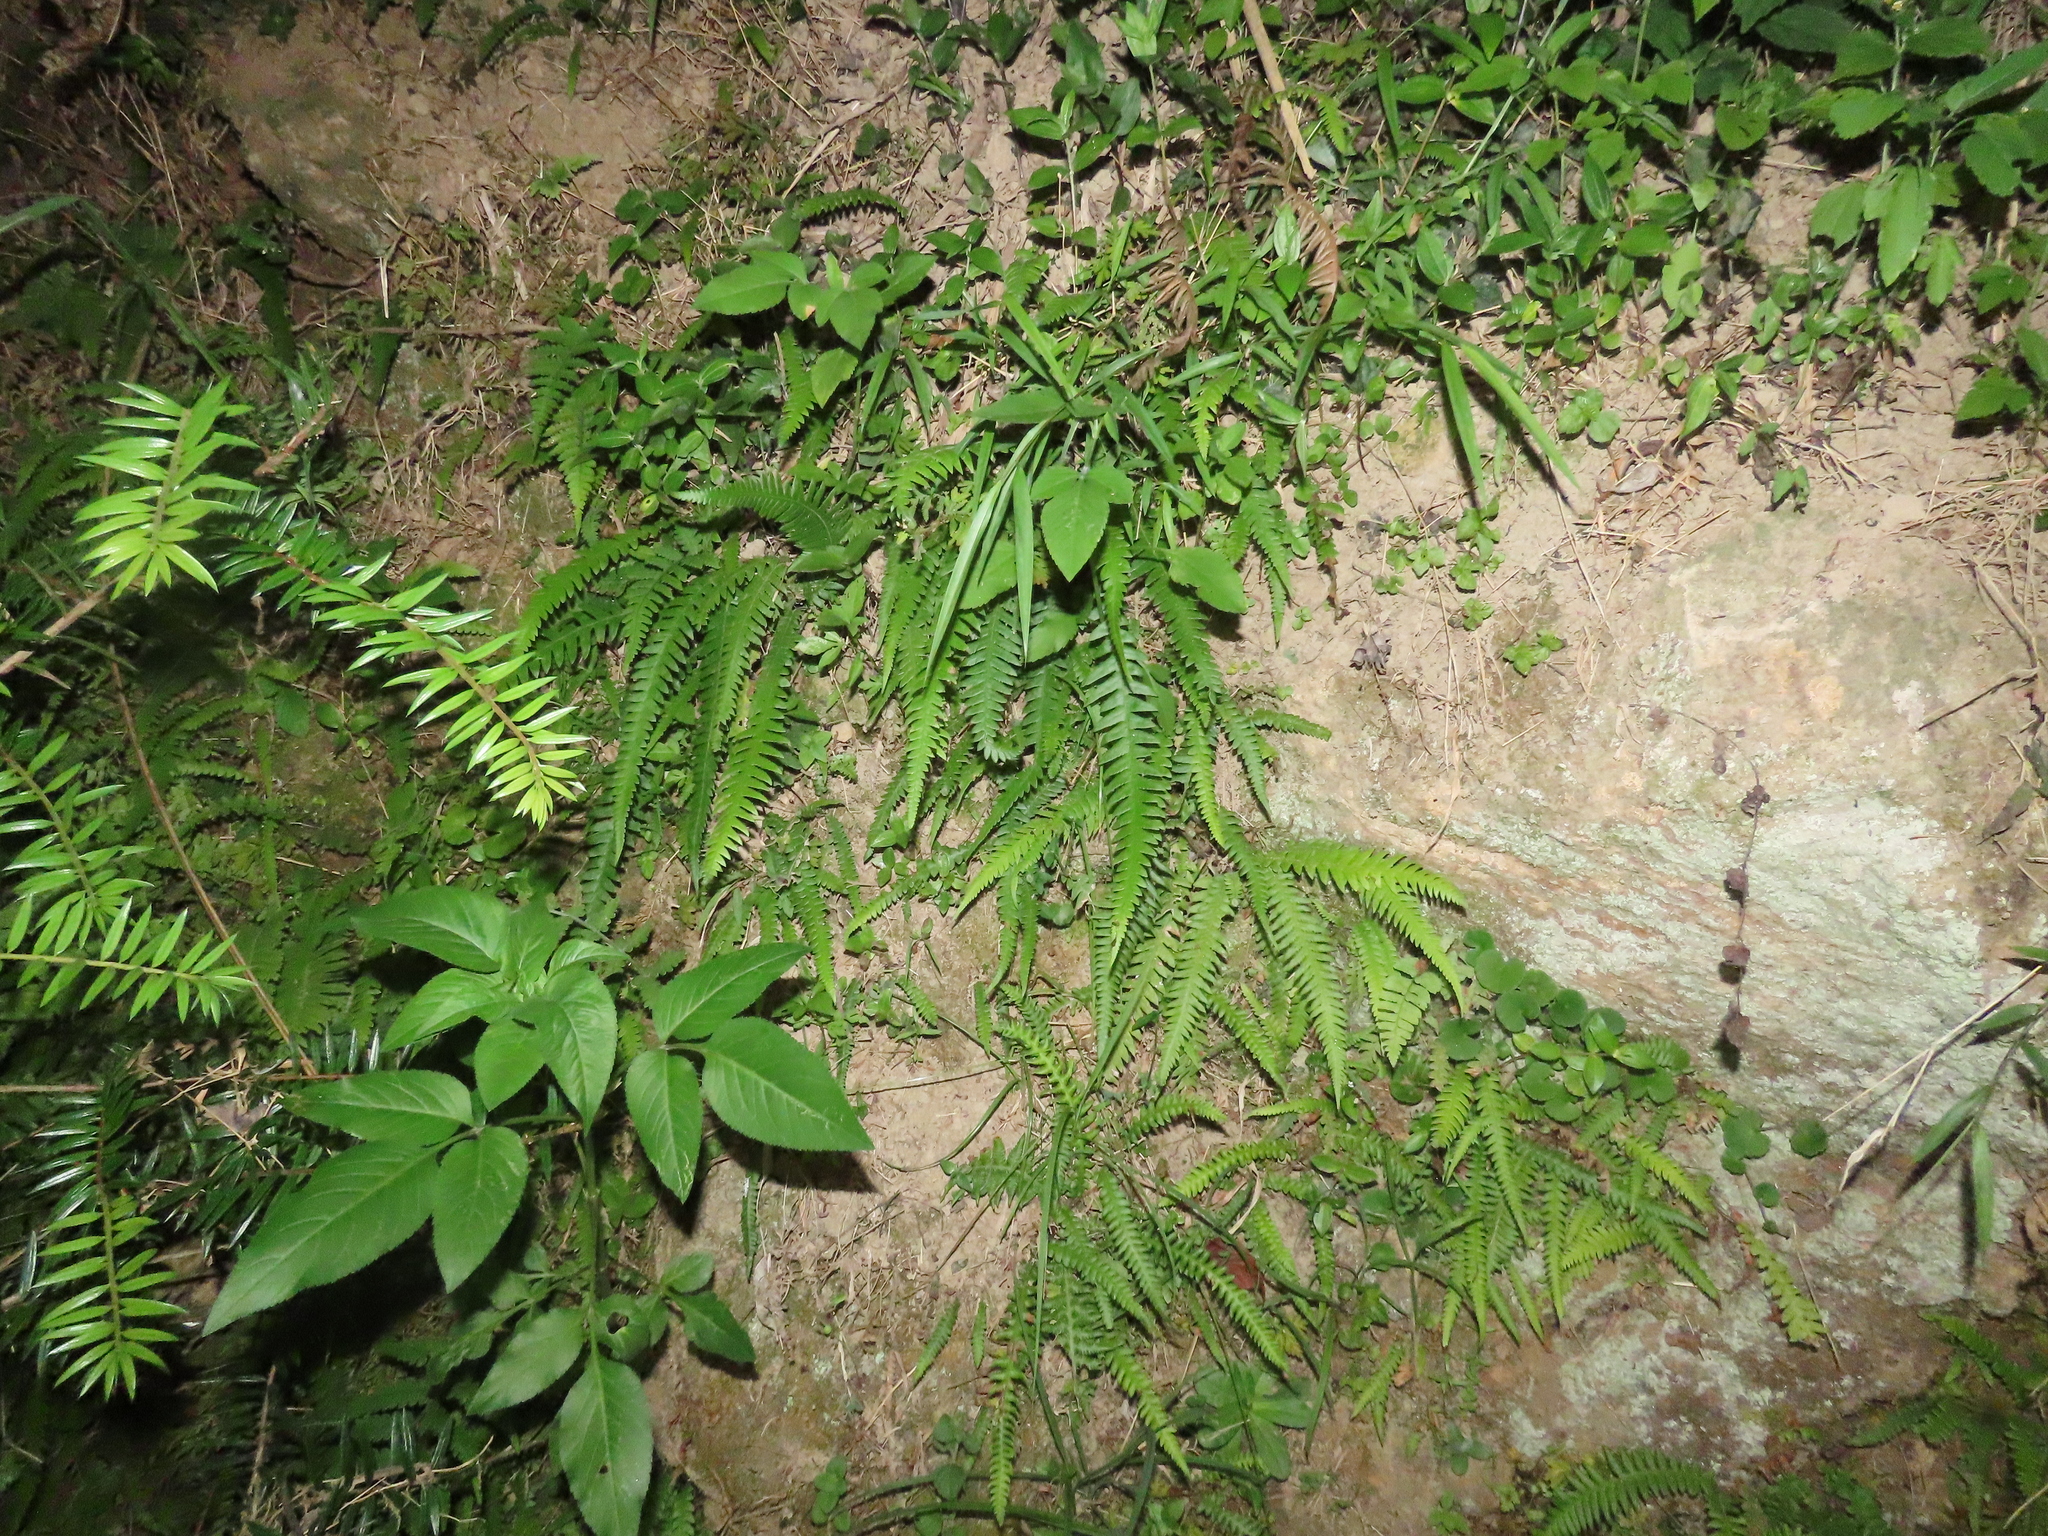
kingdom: Plantae
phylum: Tracheophyta
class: Polypodiopsida
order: Polypodiales
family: Thelypteridaceae
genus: Phegopteris
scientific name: Phegopteris decursive-pinnata
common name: Japanese beech fern
